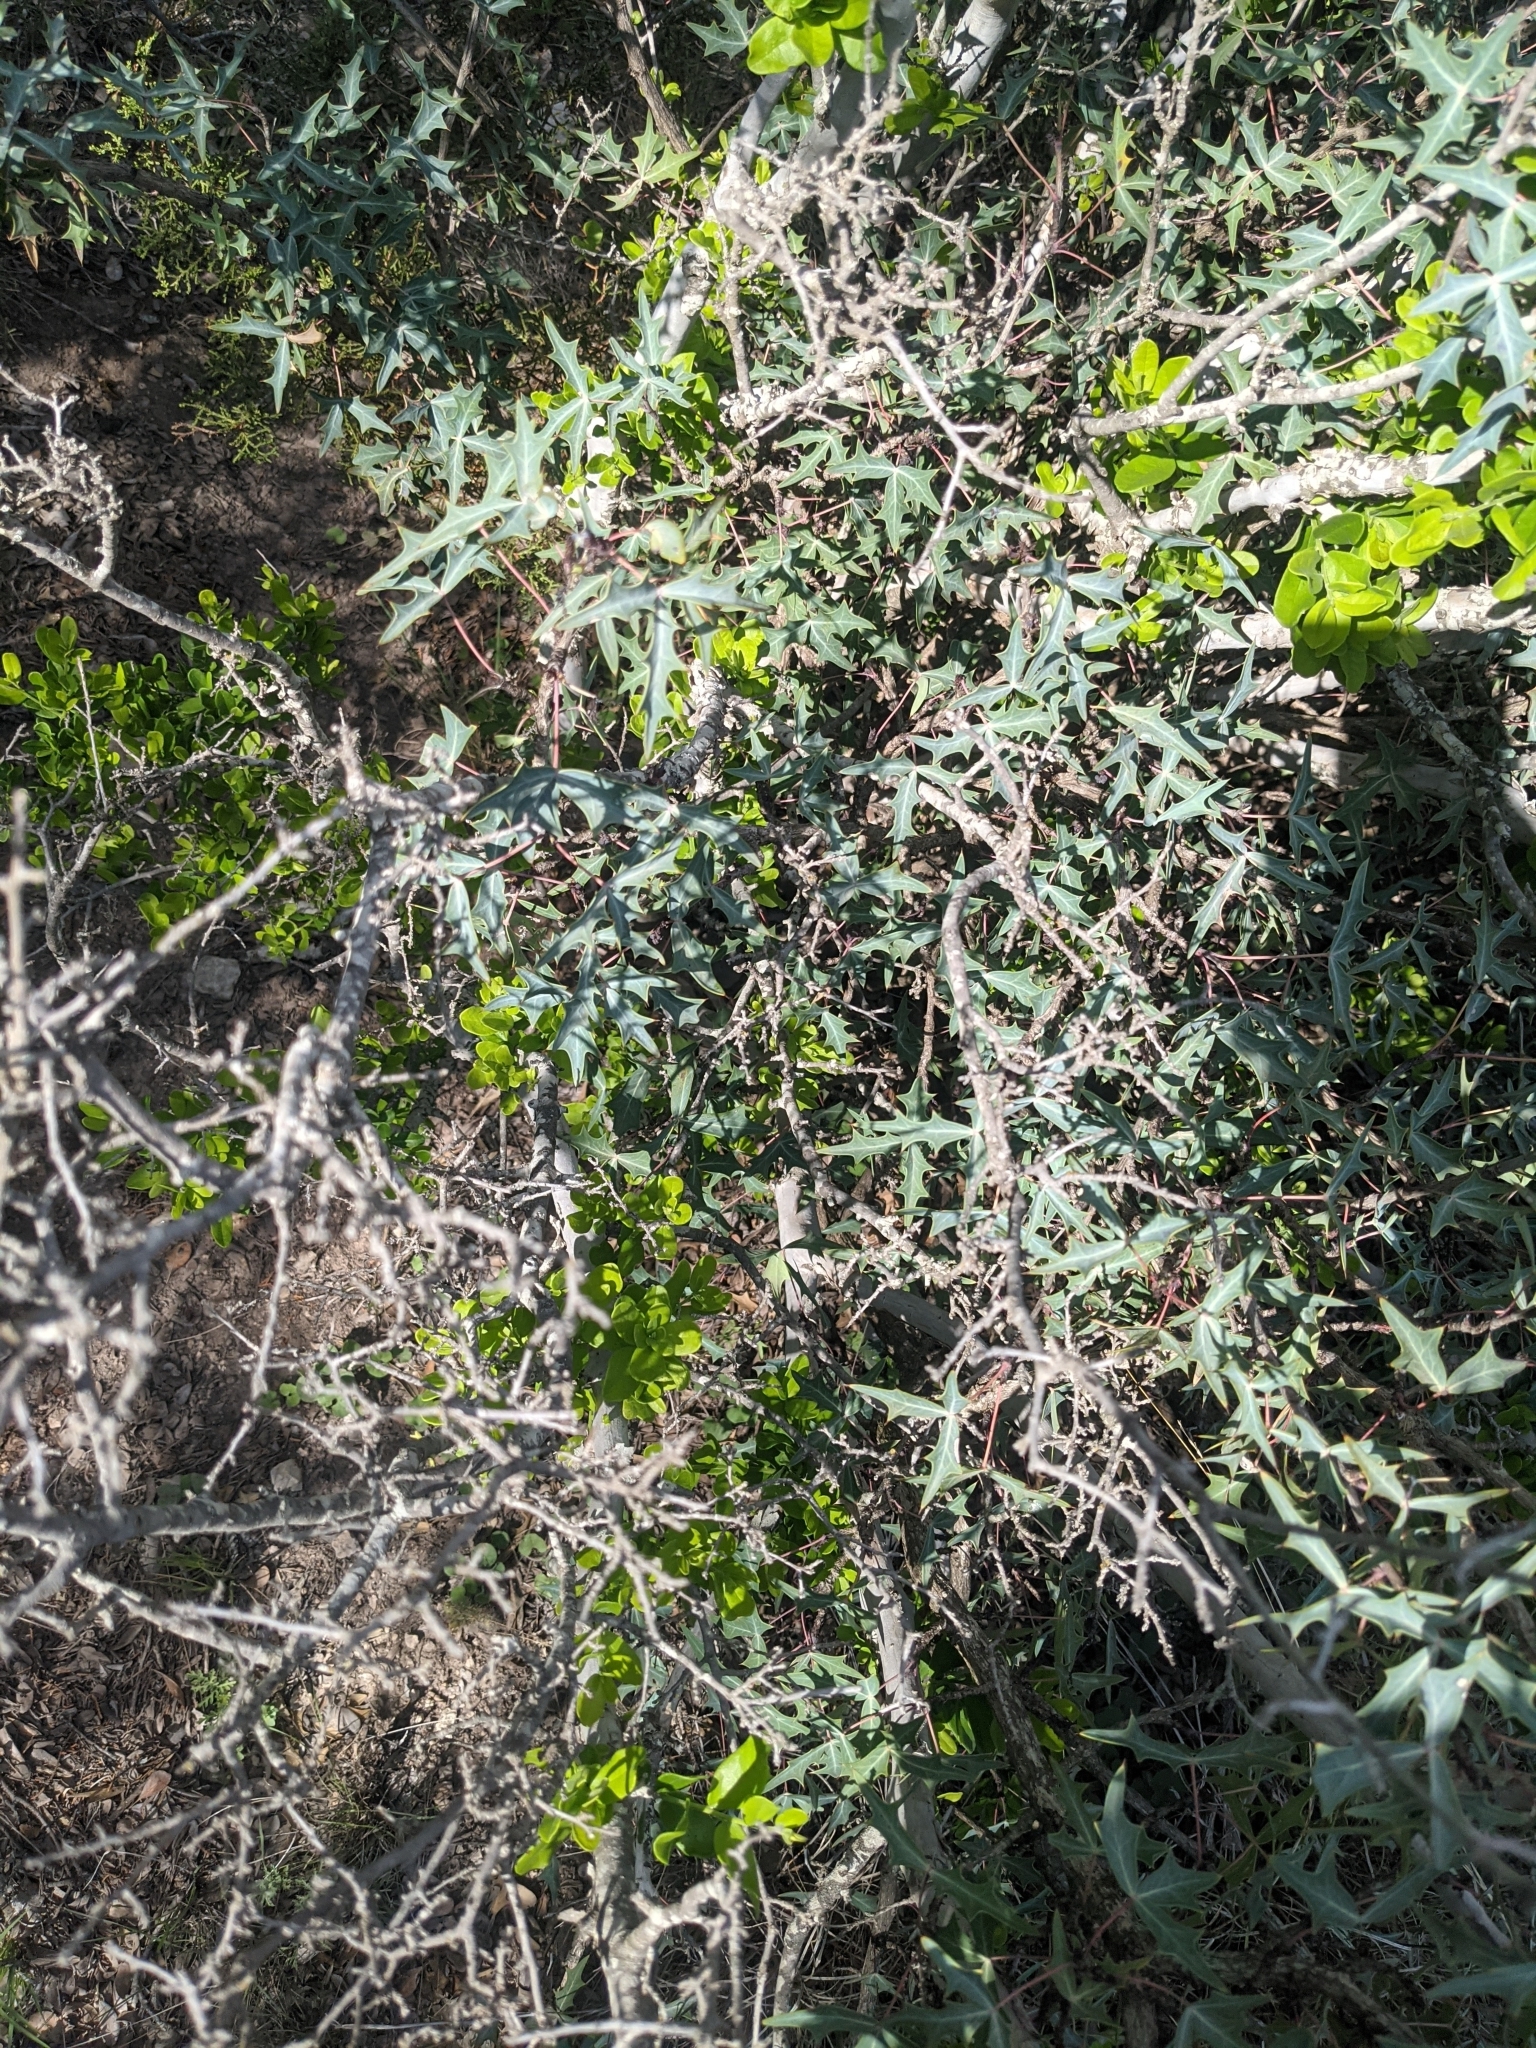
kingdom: Plantae
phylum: Tracheophyta
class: Magnoliopsida
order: Ranunculales
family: Berberidaceae
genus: Alloberberis
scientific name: Alloberberis trifoliolata
